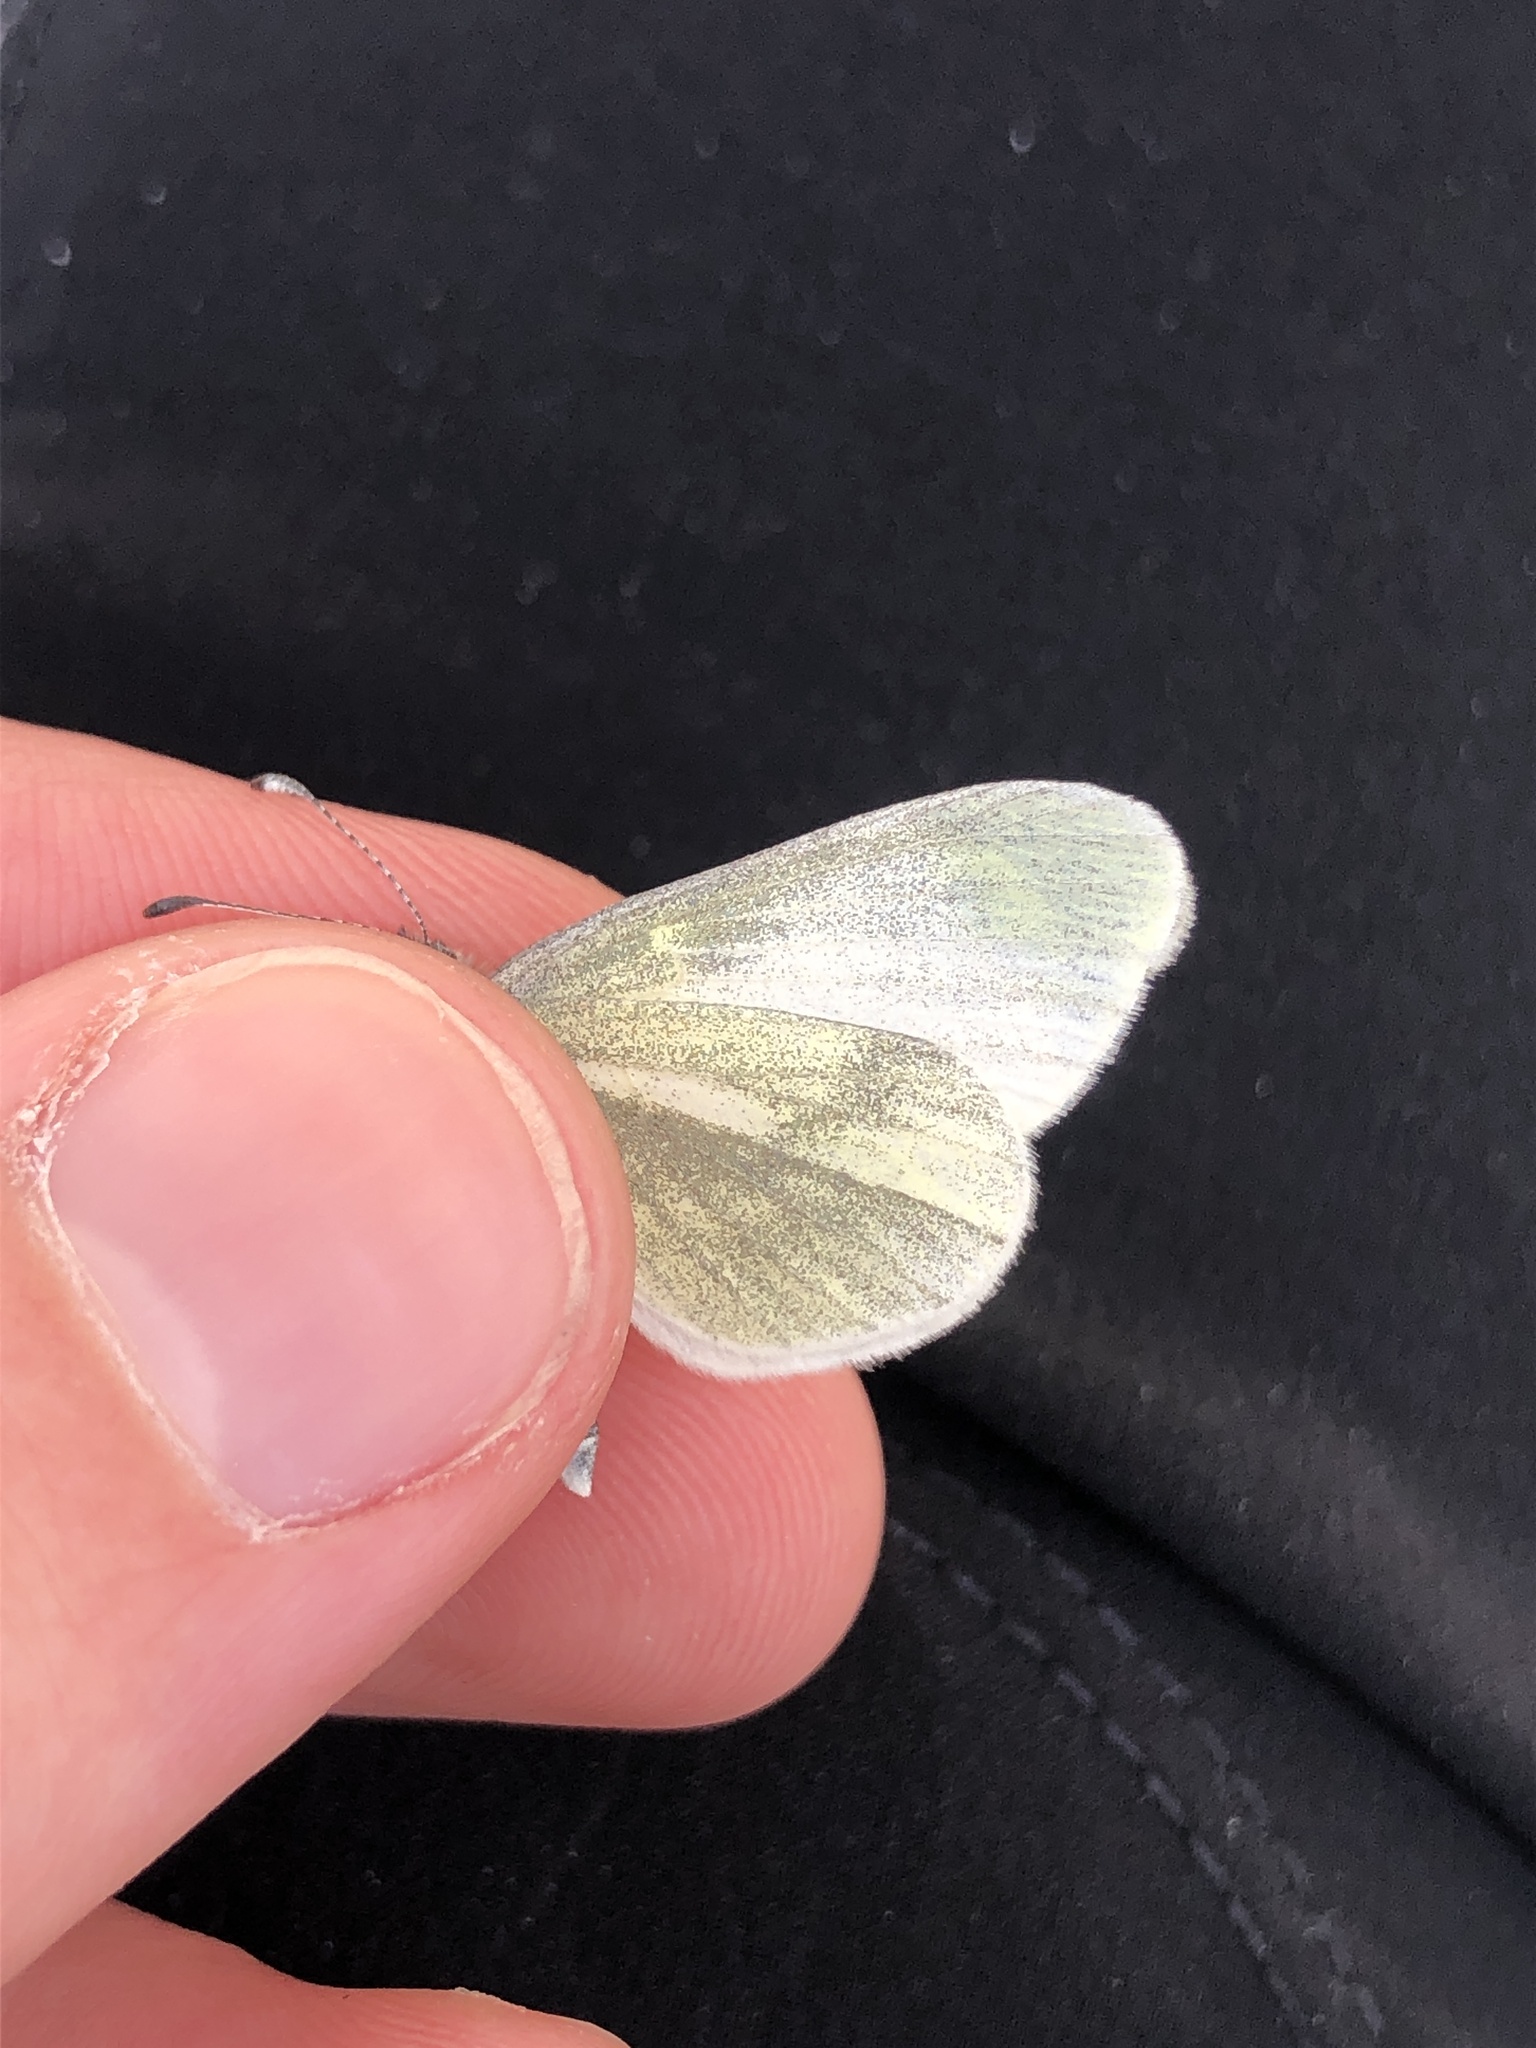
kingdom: Animalia
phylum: Arthropoda
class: Insecta
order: Lepidoptera
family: Pieridae
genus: Leptidea
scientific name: Leptidea
